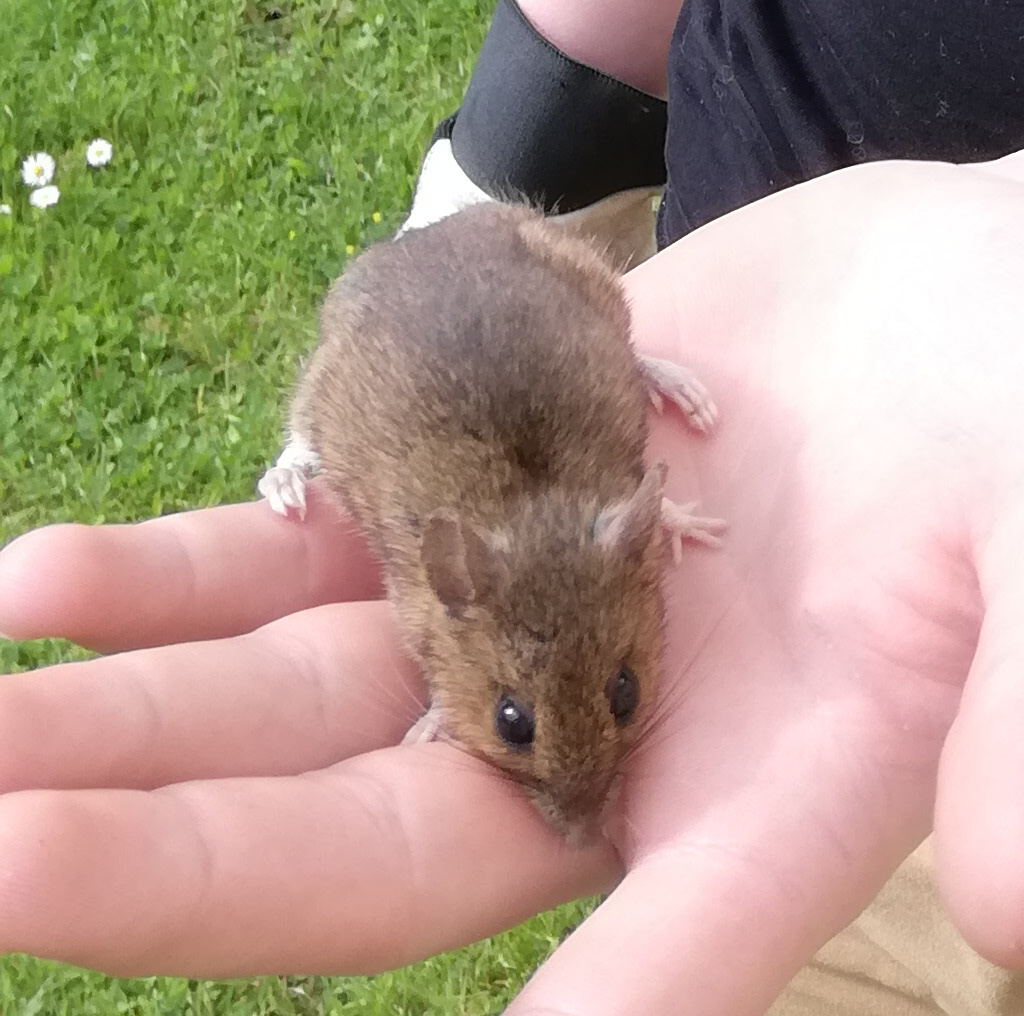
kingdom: Animalia
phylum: Chordata
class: Mammalia
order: Rodentia
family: Muridae
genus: Apodemus
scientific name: Apodemus
